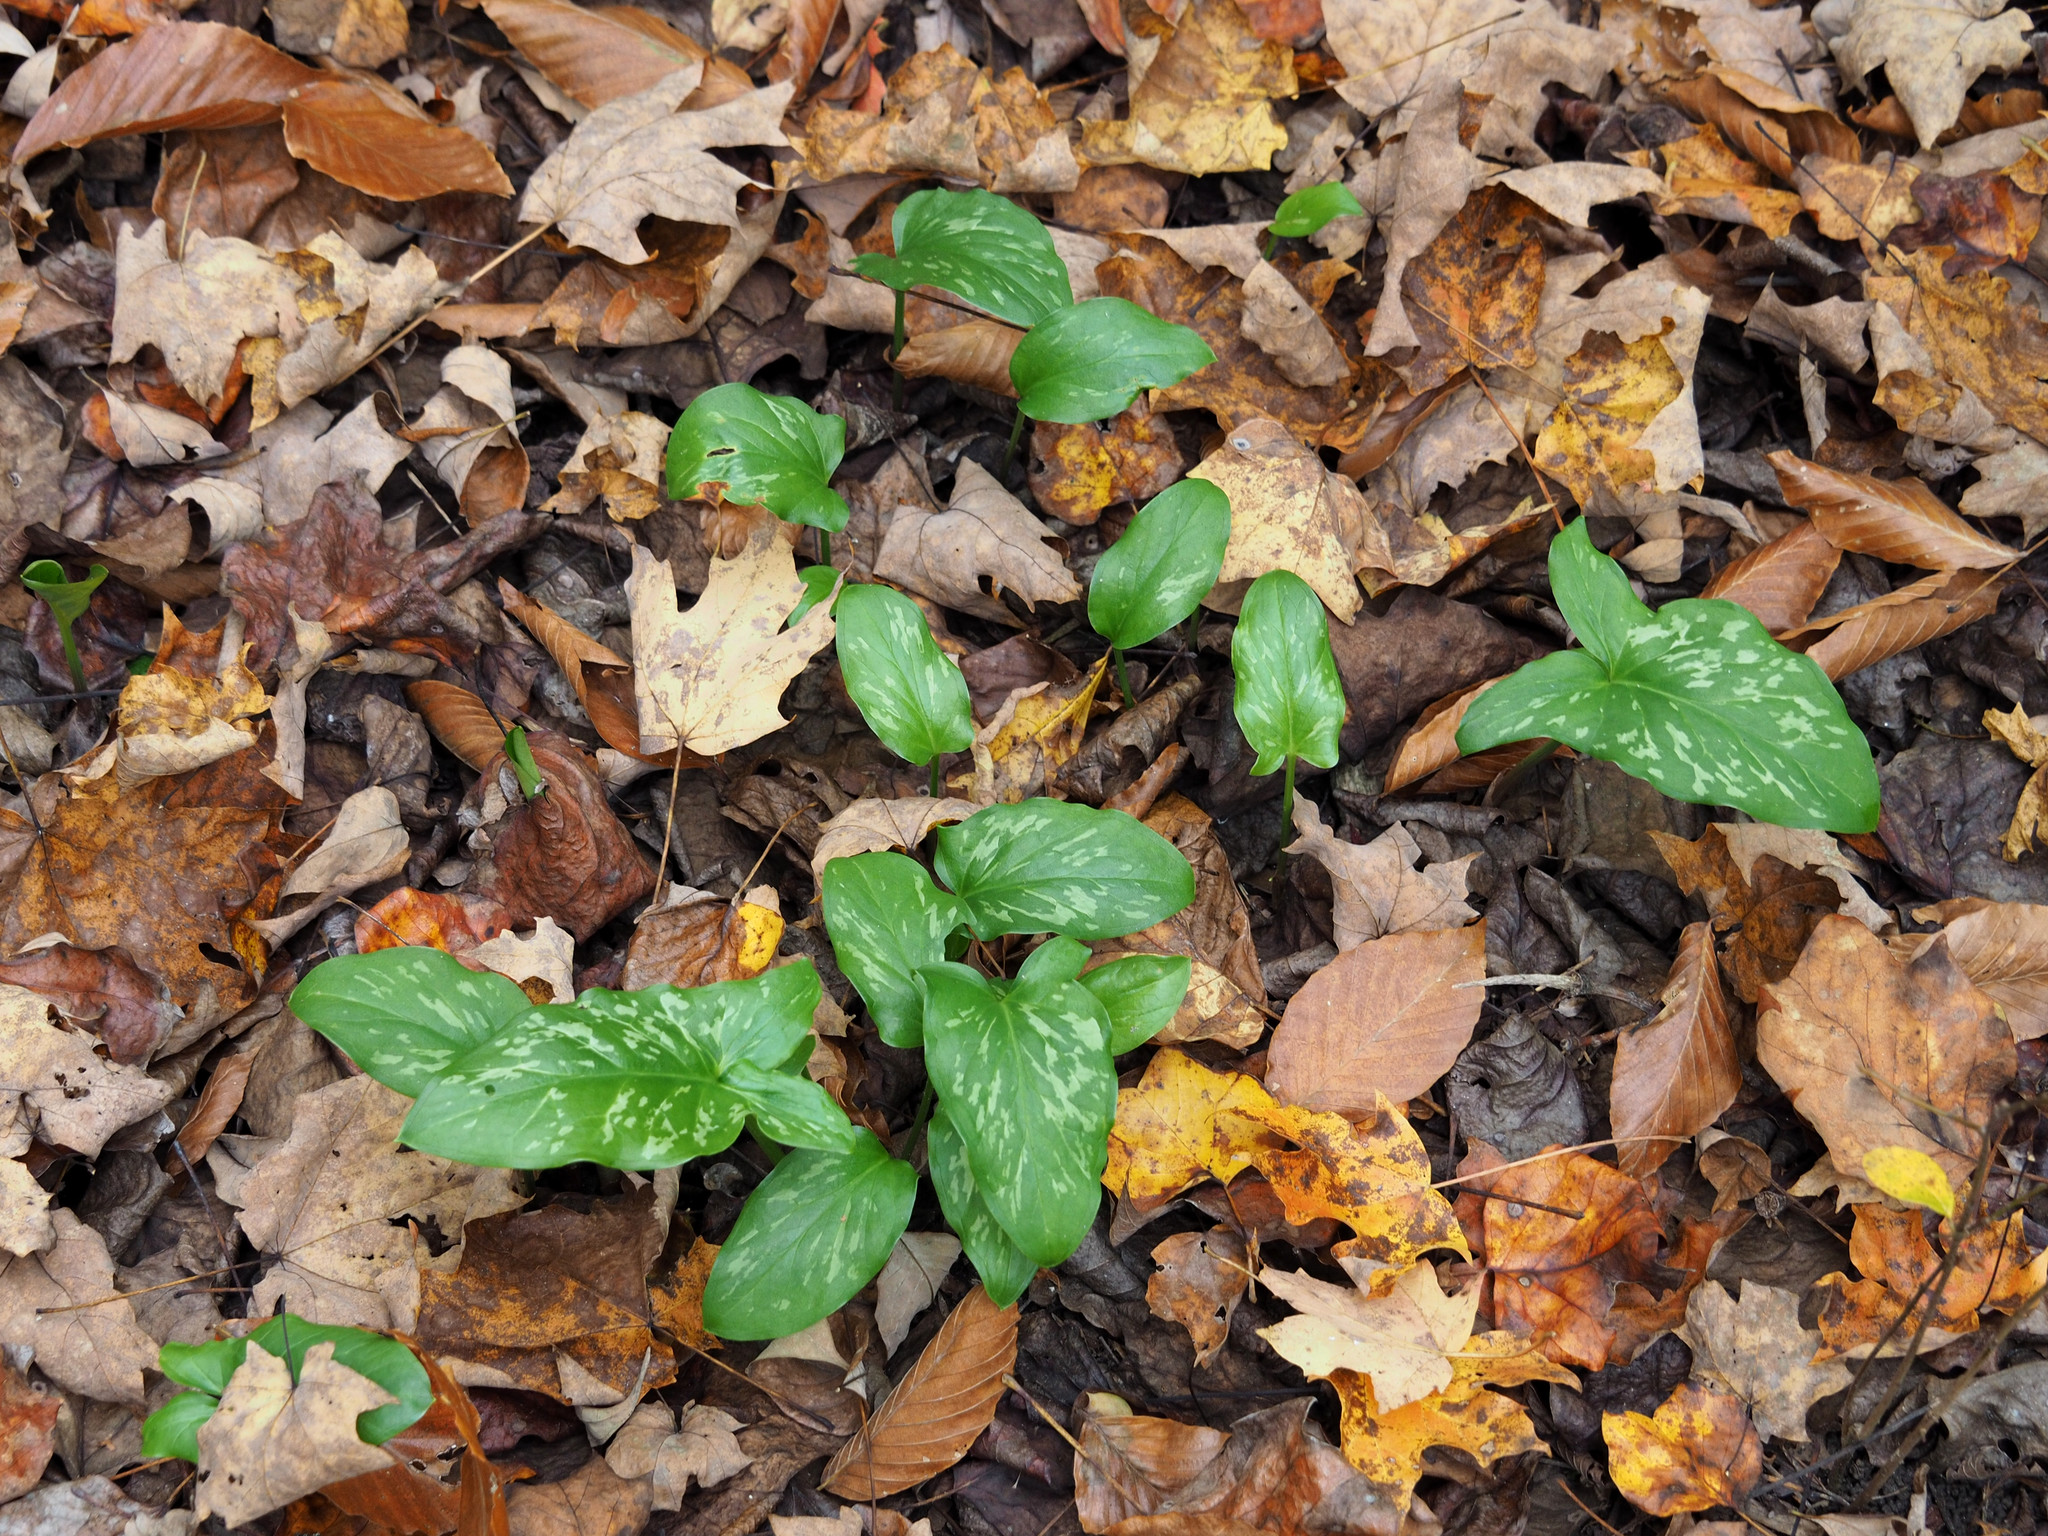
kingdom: Plantae
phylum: Tracheophyta
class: Liliopsida
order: Alismatales
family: Araceae
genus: Arum
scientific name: Arum italicum
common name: Italian lords-and-ladies
